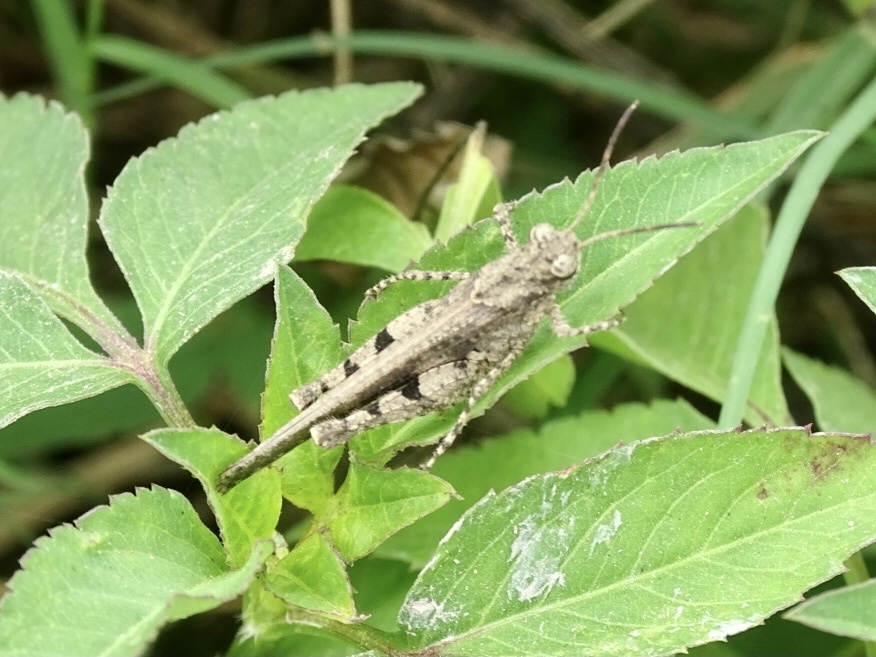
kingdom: Animalia
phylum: Arthropoda
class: Insecta
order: Orthoptera
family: Acrididae
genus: Trilophidia
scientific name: Trilophidia annulata
